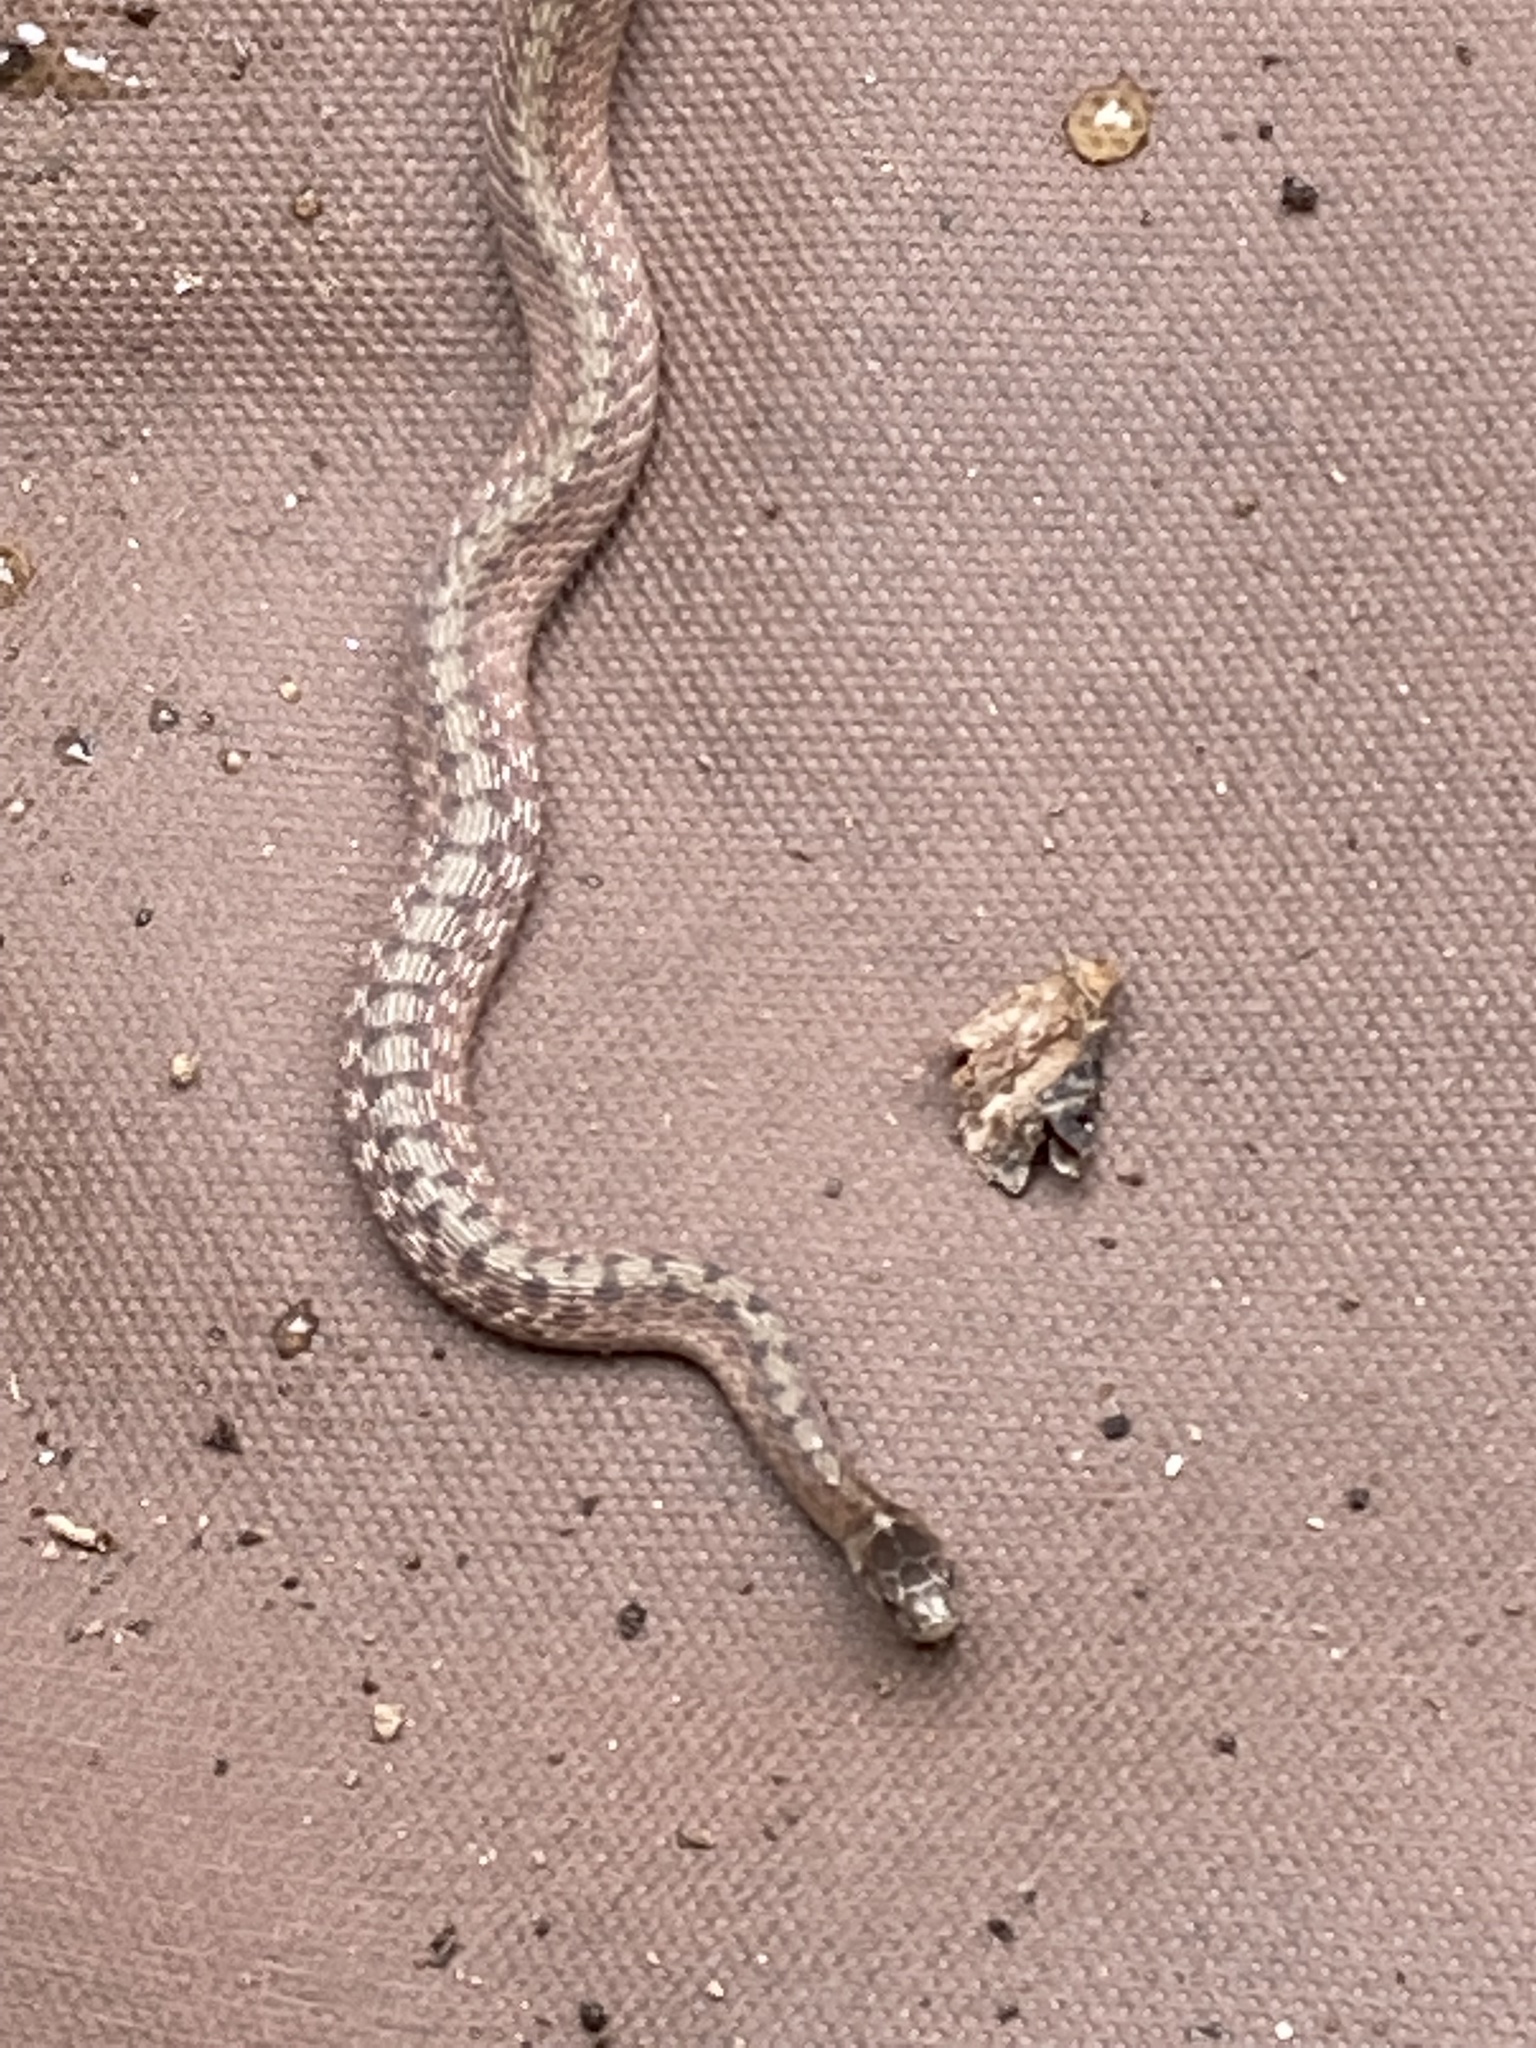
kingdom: Animalia
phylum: Chordata
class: Squamata
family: Colubridae
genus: Storeria
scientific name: Storeria dekayi
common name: (dekay’s) brown snake
